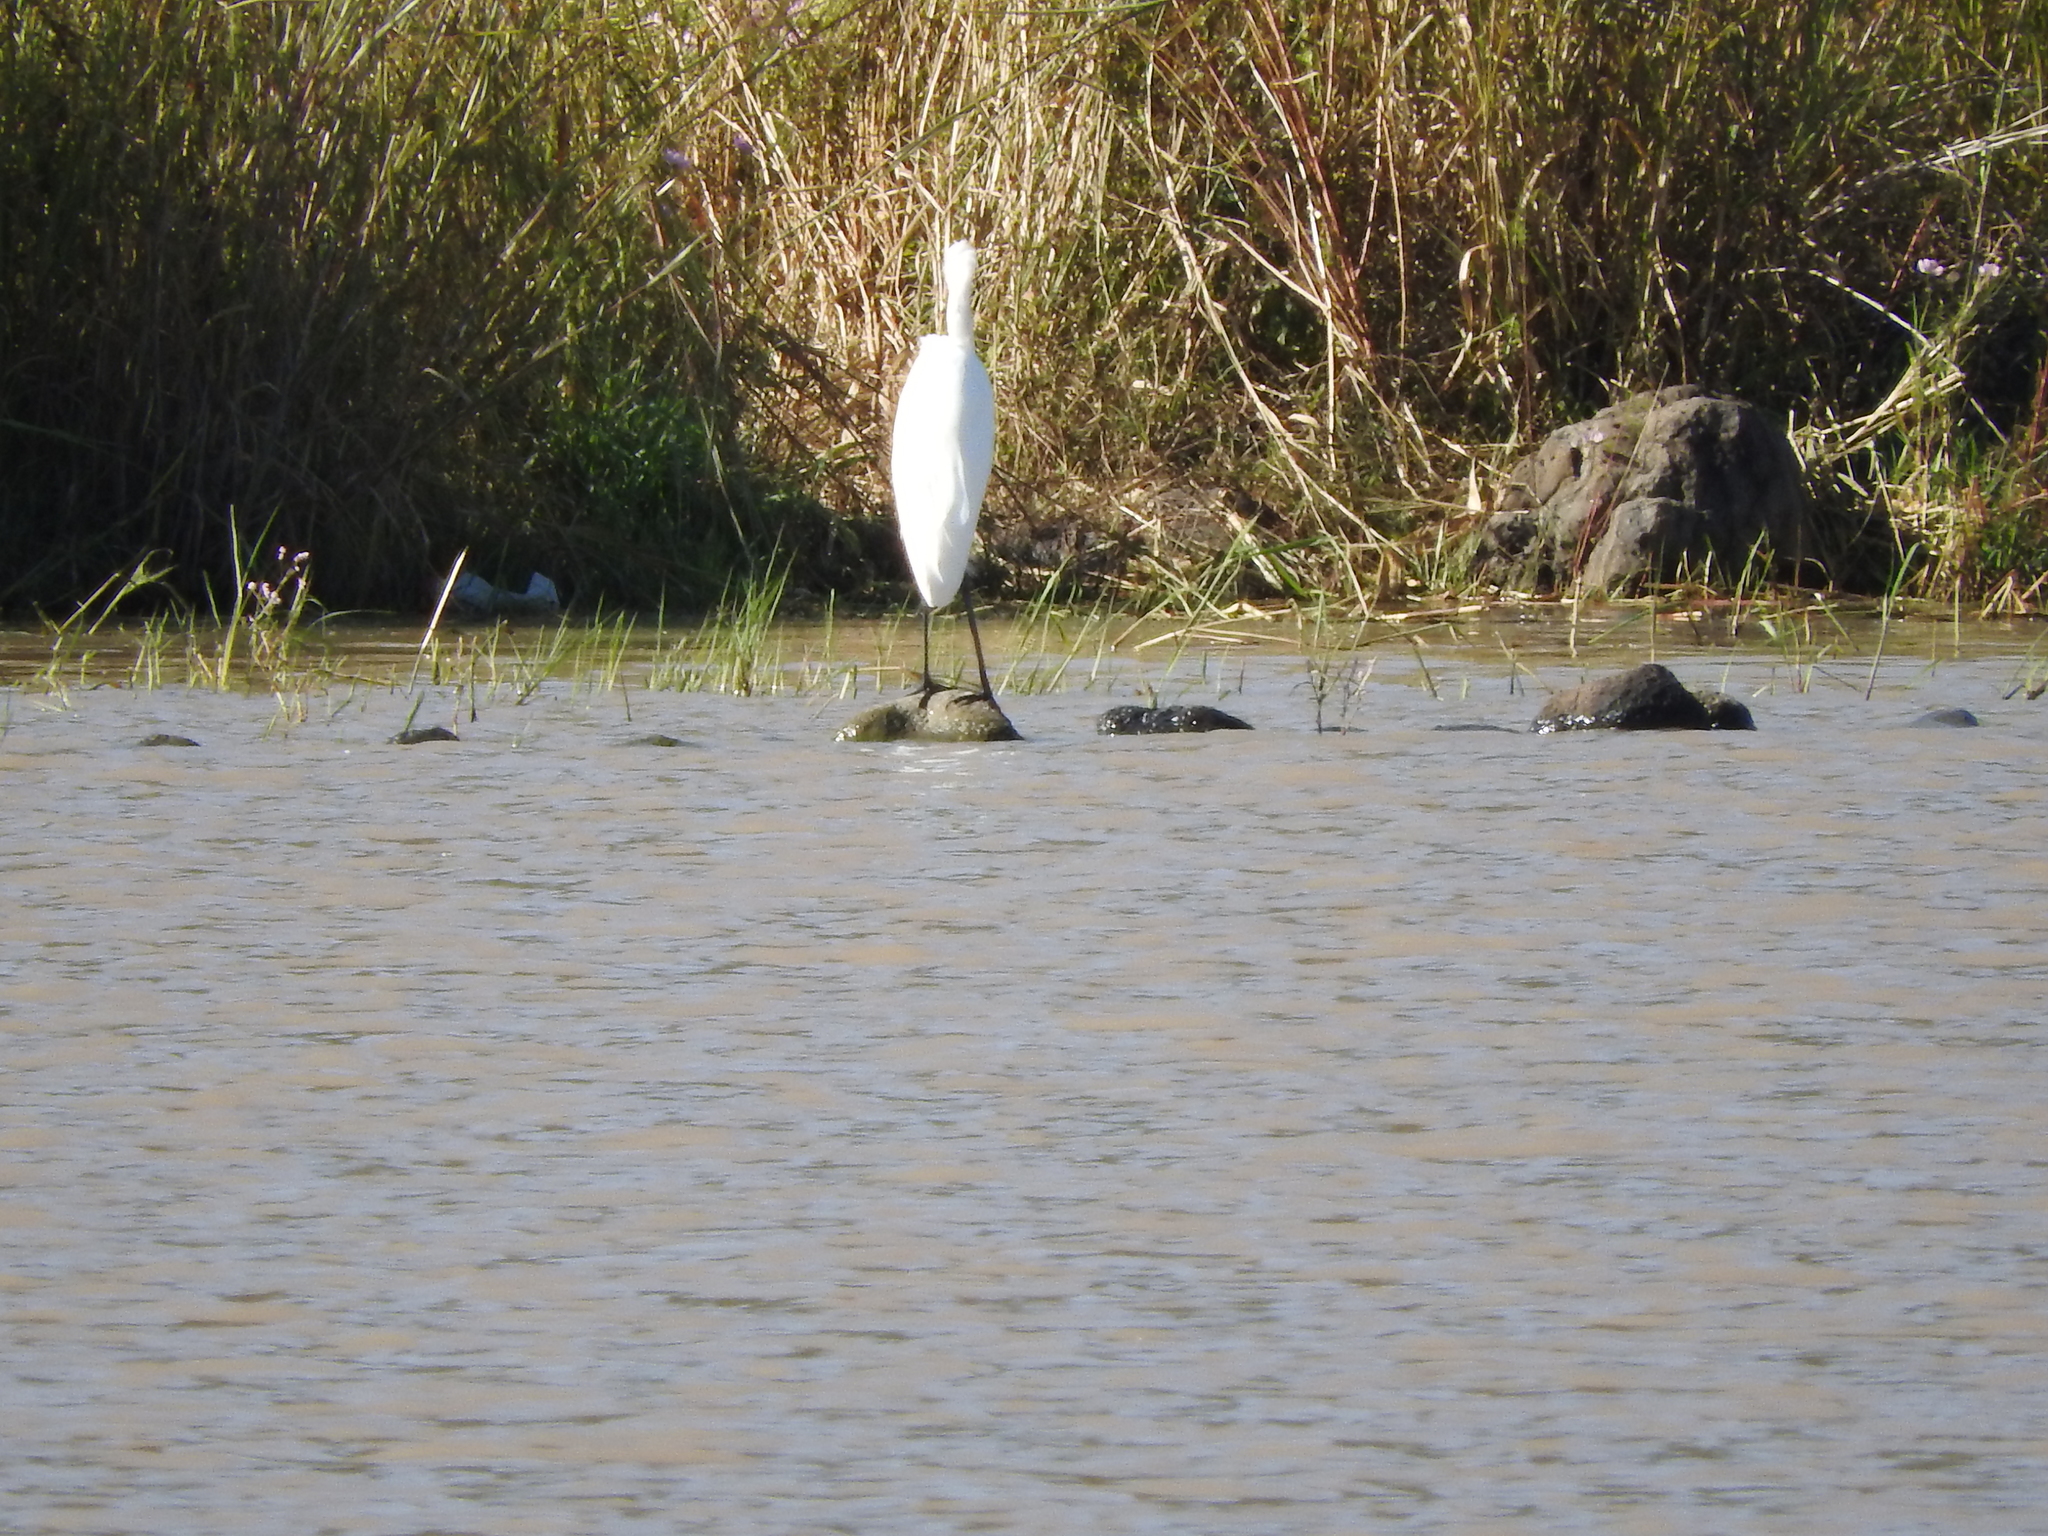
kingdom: Animalia
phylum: Chordata
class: Aves
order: Pelecaniformes
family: Ardeidae
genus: Ardea
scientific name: Ardea alba
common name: Great egret
